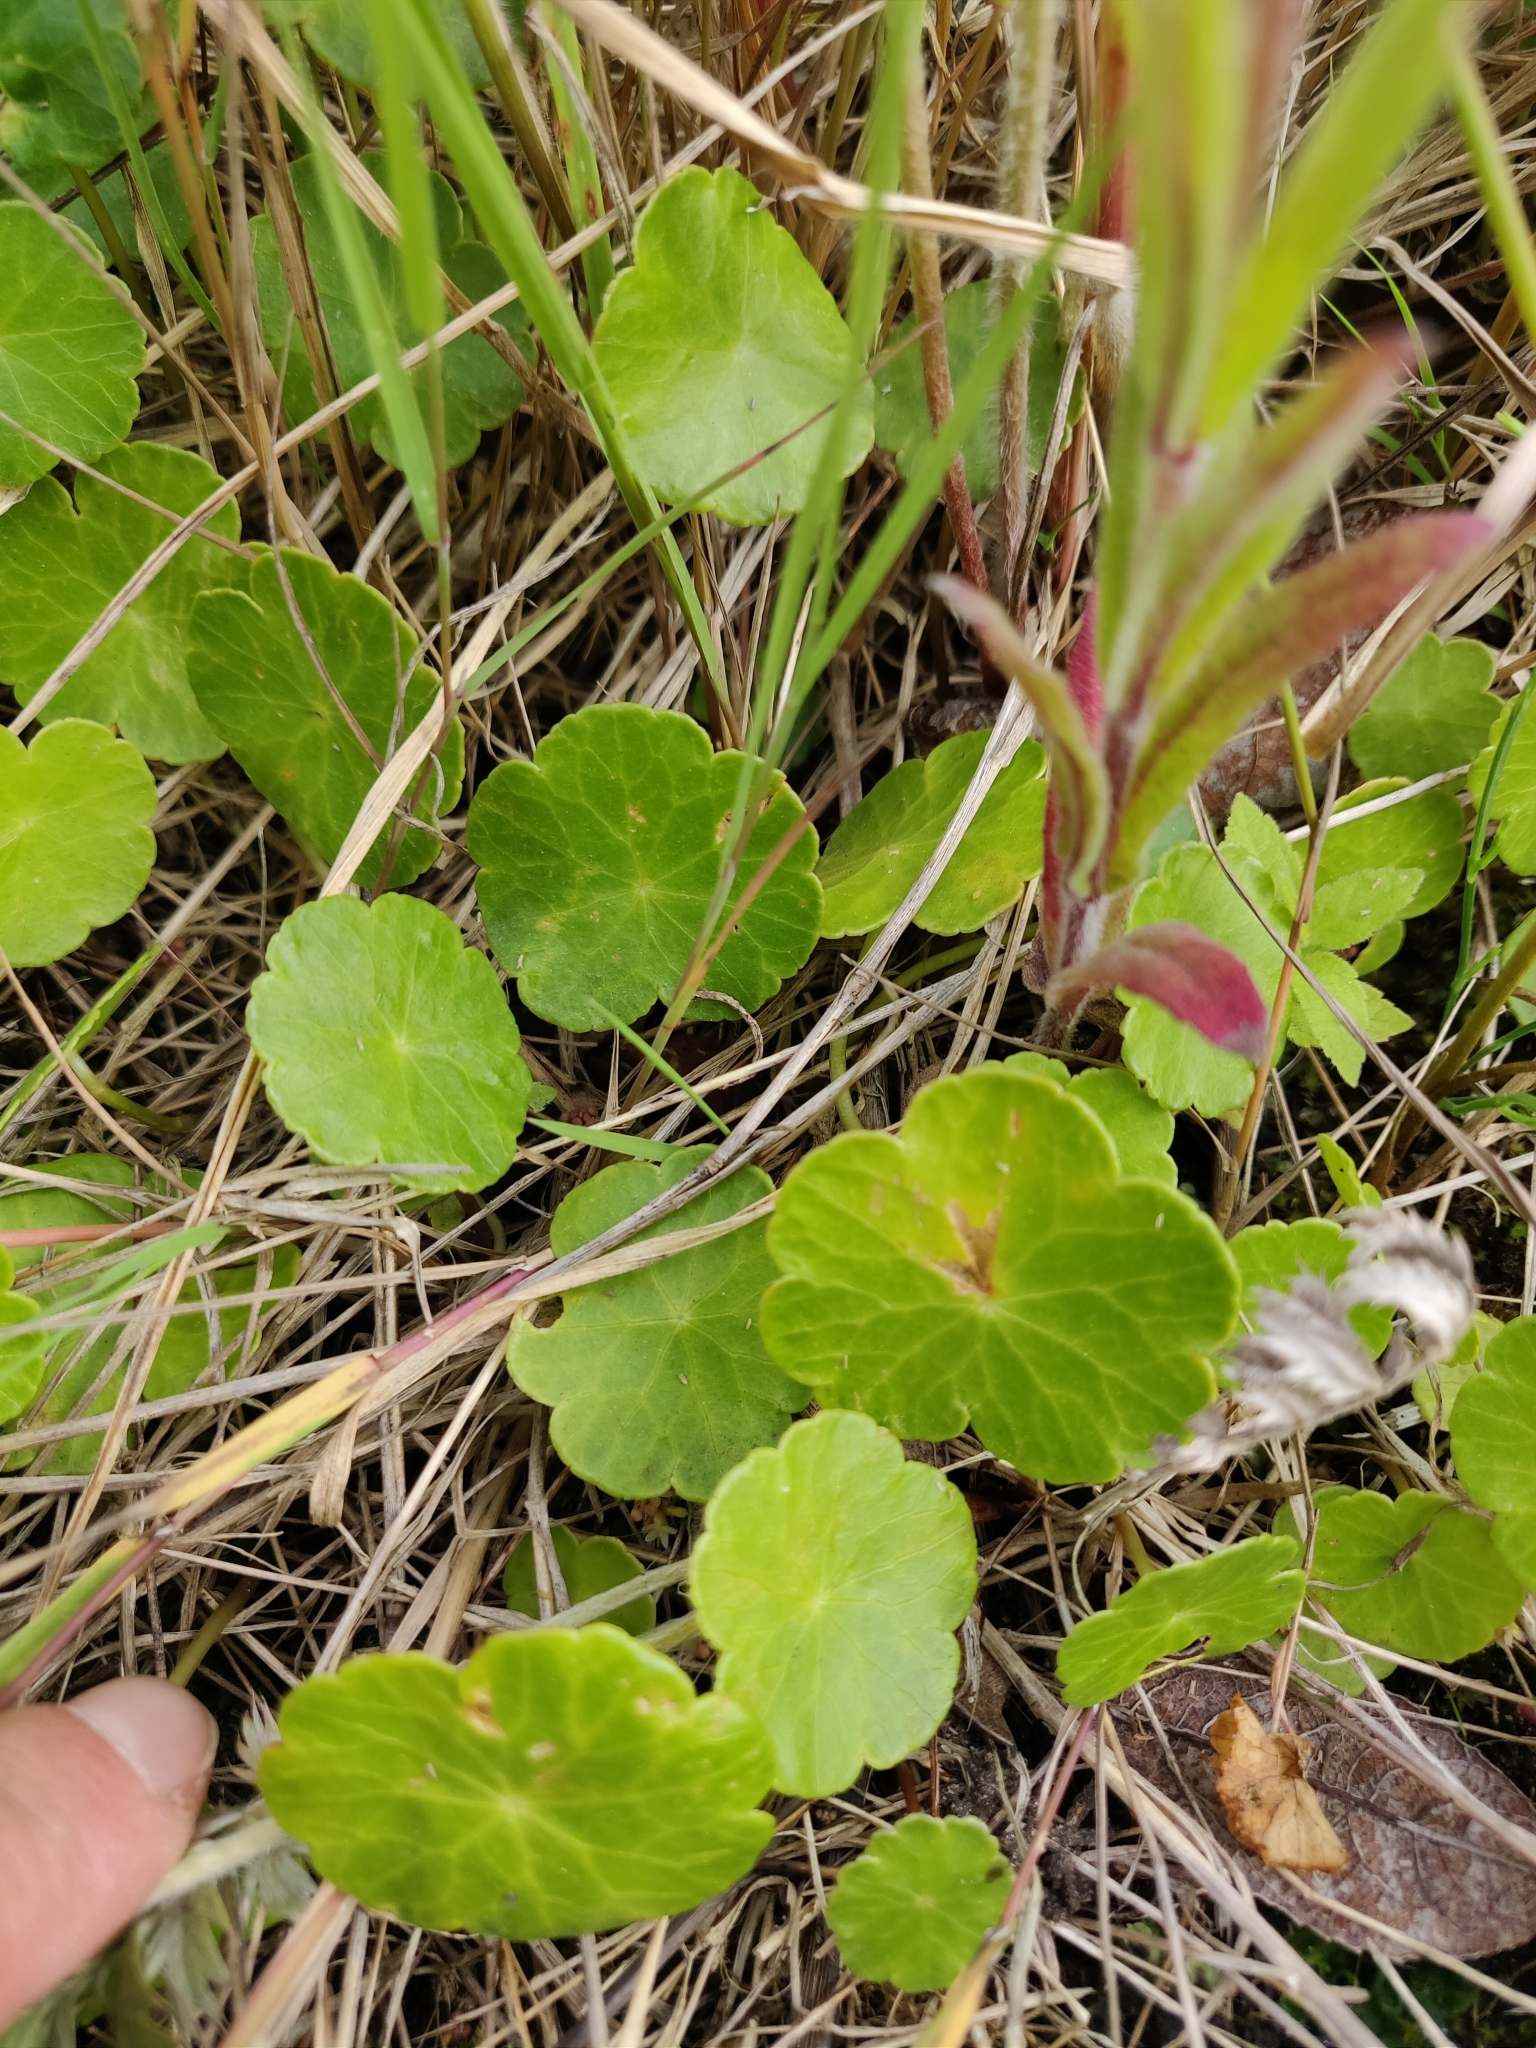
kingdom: Plantae
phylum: Tracheophyta
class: Magnoliopsida
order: Apiales
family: Araliaceae
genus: Hydrocotyle
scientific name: Hydrocotyle vulgaris
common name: Marsh pennywort
